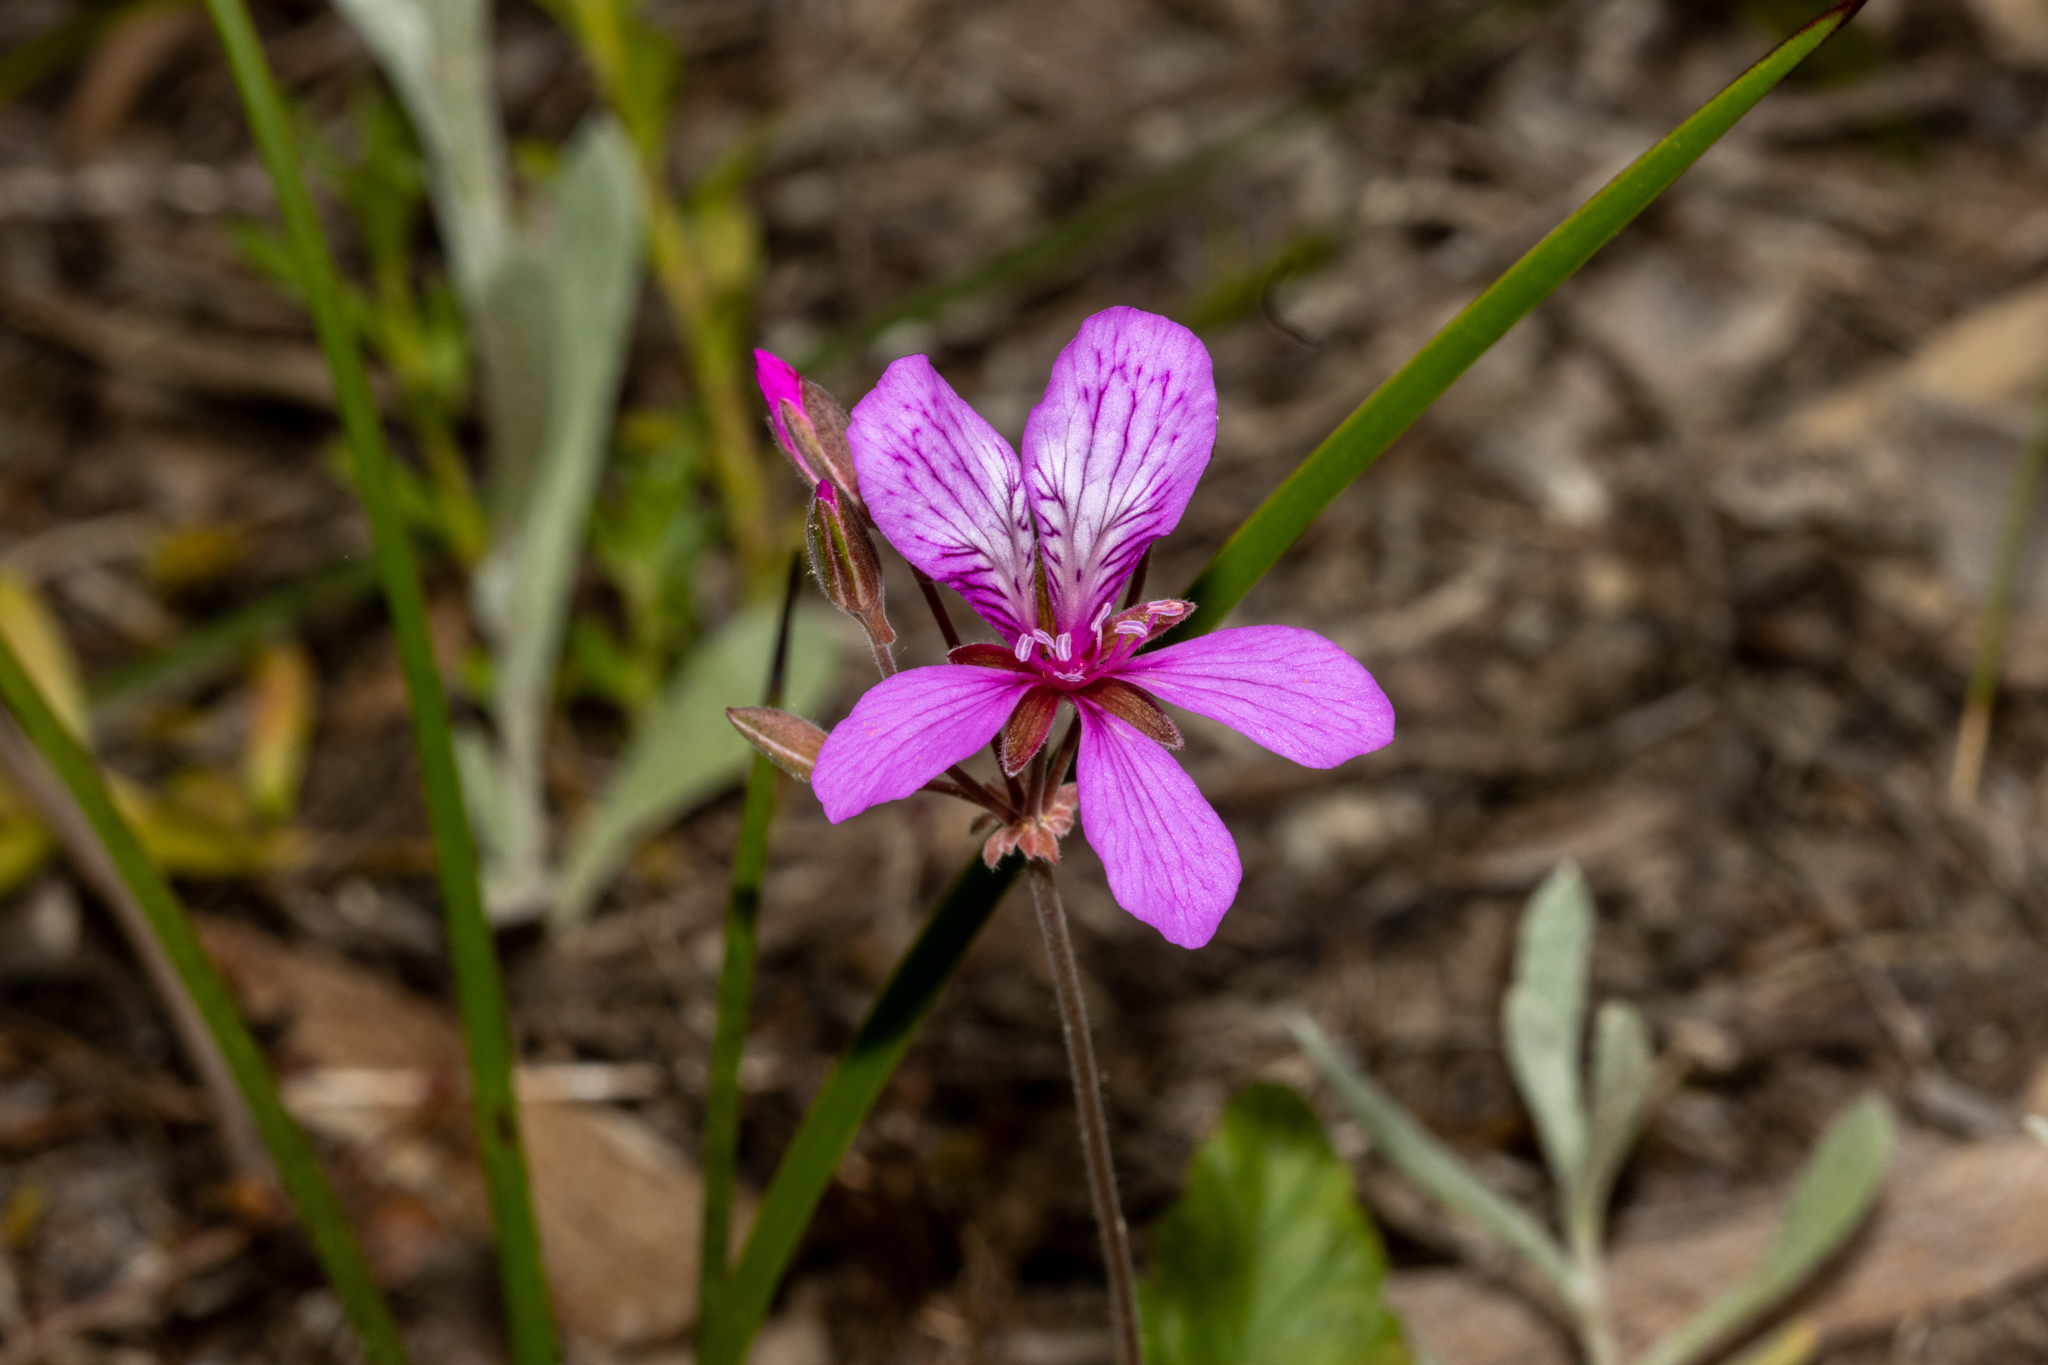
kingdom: Plantae
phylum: Tracheophyta
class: Magnoliopsida
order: Geraniales
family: Geraniaceae
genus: Pelargonium
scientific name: Pelargonium rodneyanum
